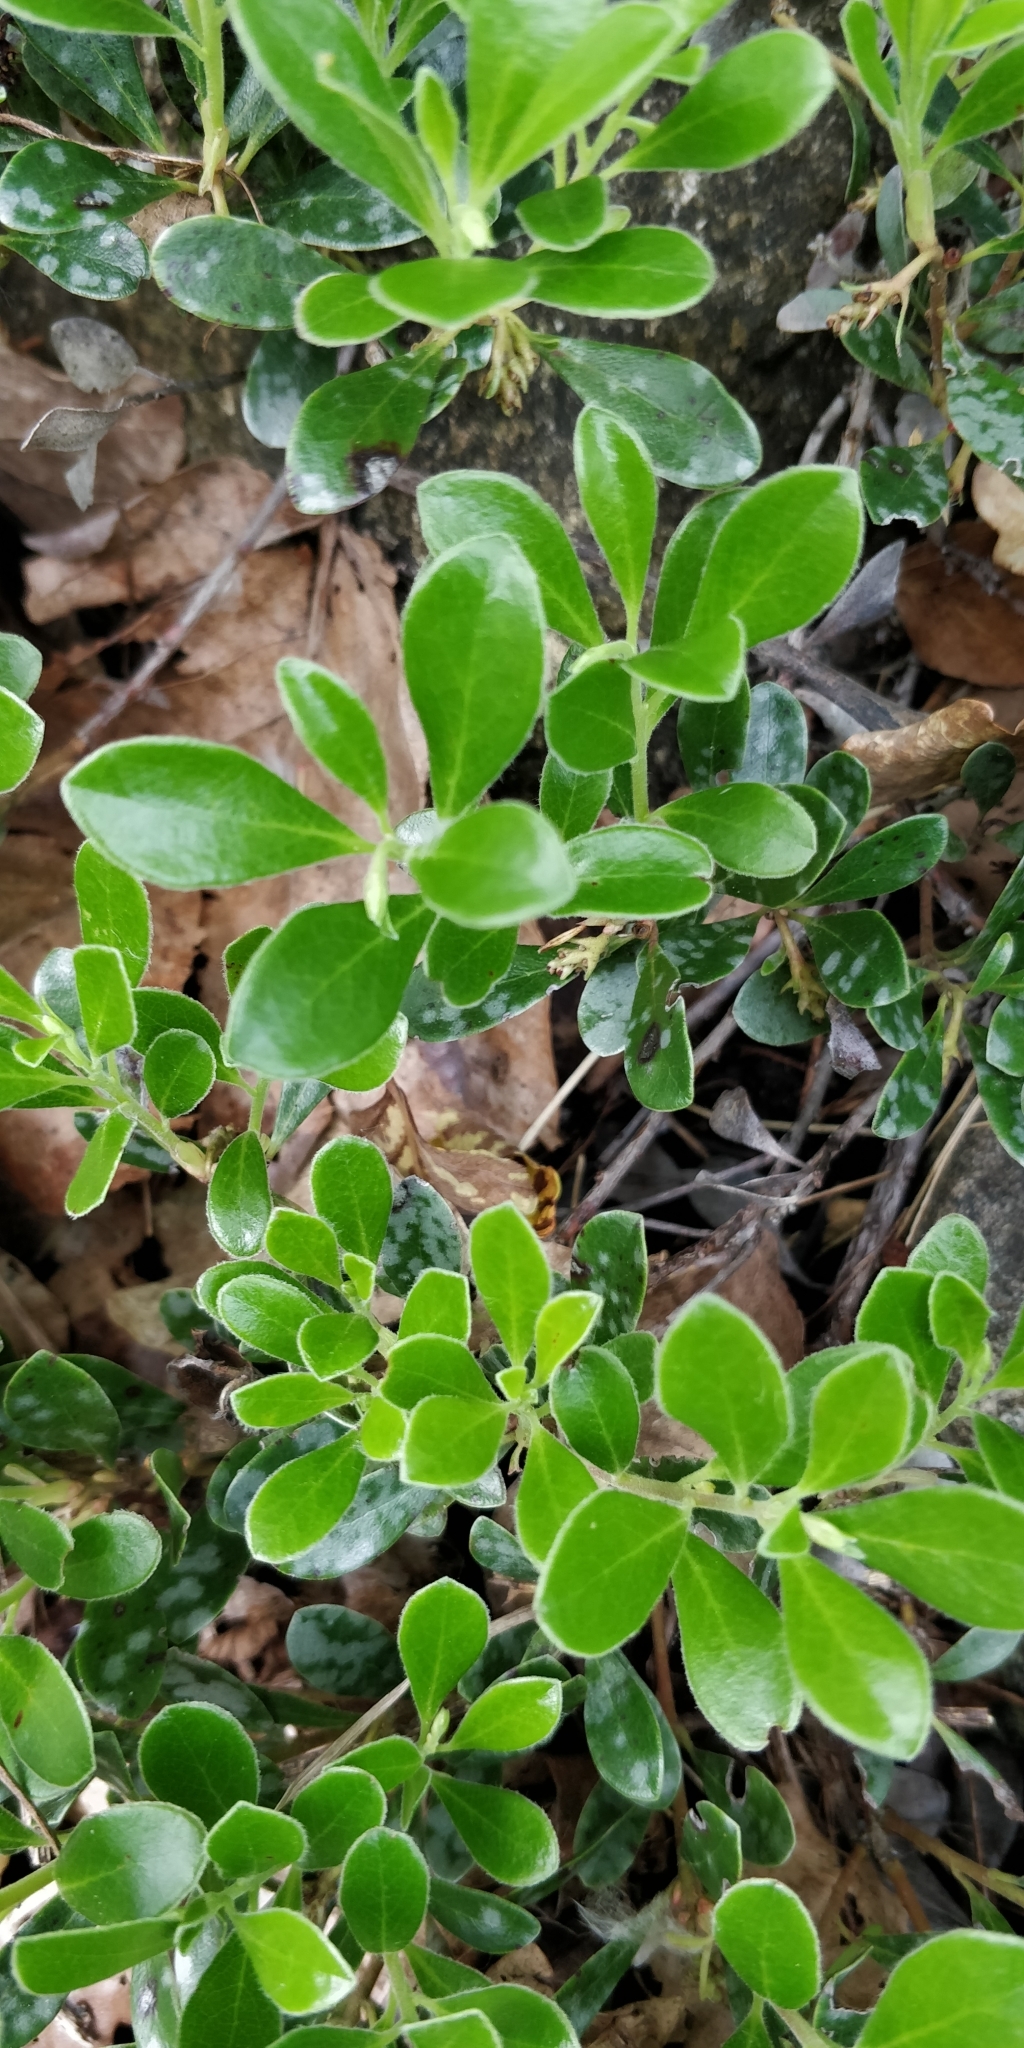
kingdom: Plantae
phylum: Tracheophyta
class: Magnoliopsida
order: Ericales
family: Ericaceae
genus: Arctostaphylos
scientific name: Arctostaphylos uva-ursi
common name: Bearberry
